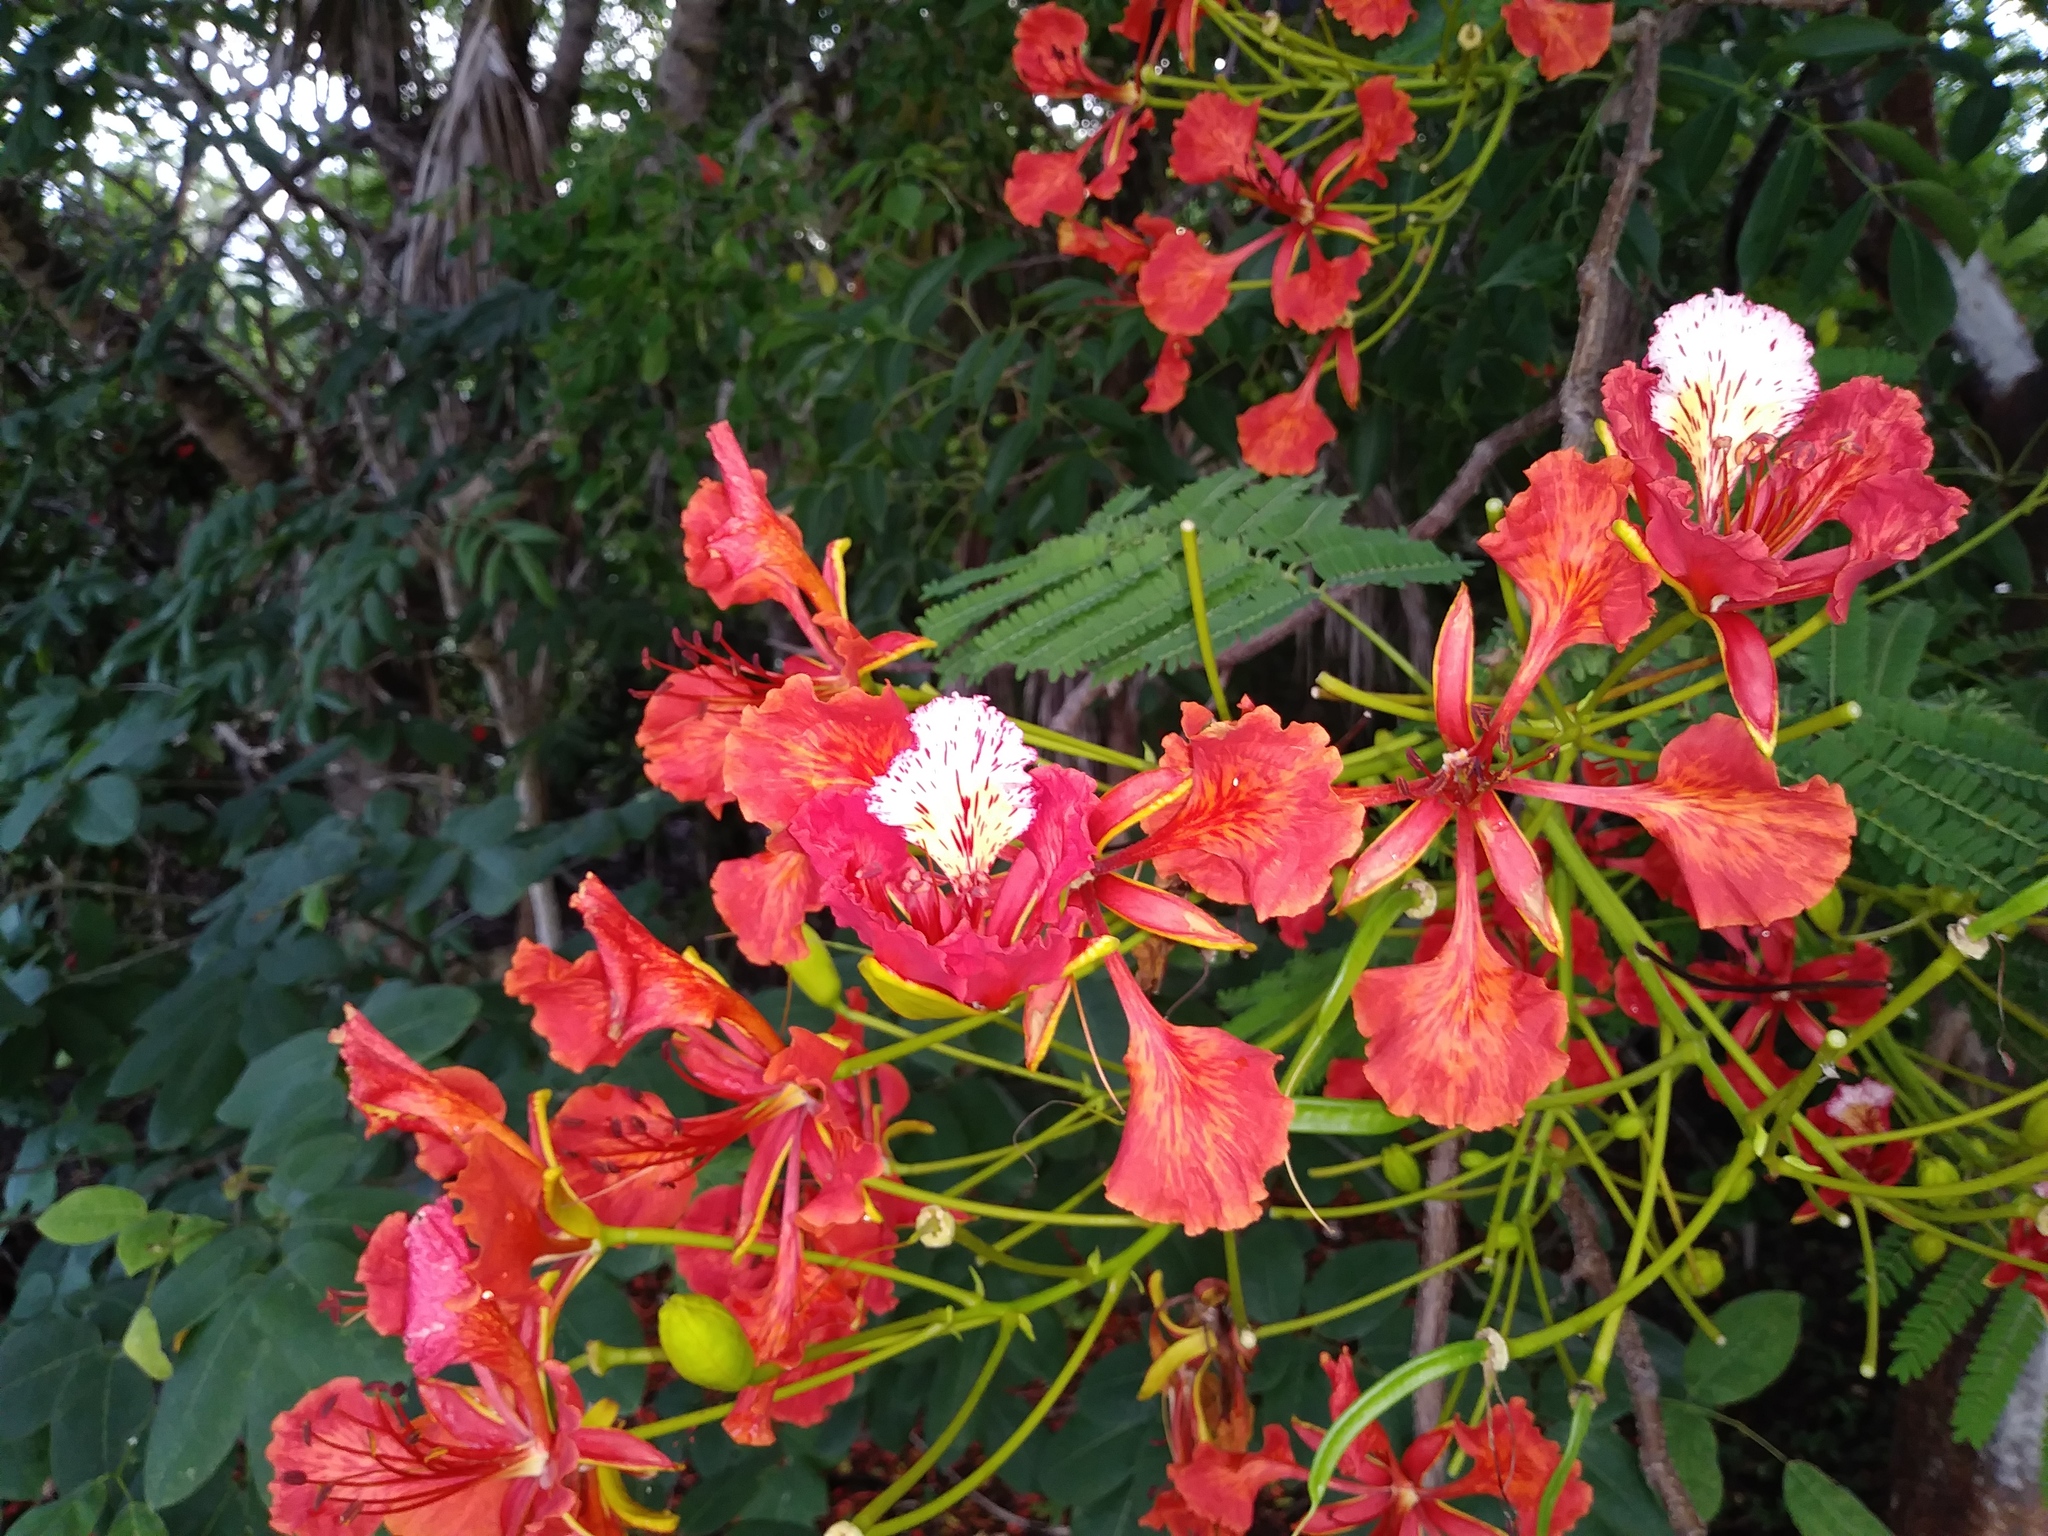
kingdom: Plantae
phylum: Tracheophyta
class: Magnoliopsida
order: Fabales
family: Fabaceae
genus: Delonix
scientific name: Delonix regia
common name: Royal poinciana
